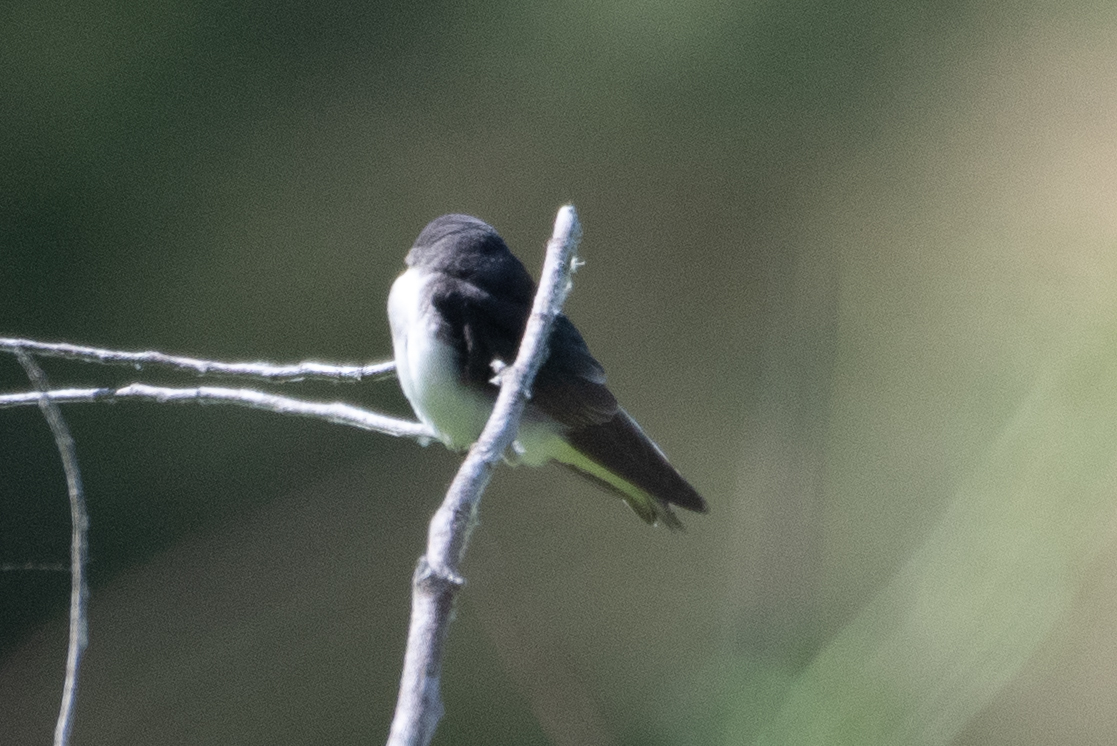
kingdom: Animalia
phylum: Chordata
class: Aves
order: Passeriformes
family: Hirundinidae
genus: Tachycineta
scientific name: Tachycineta bicolor
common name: Tree swallow
